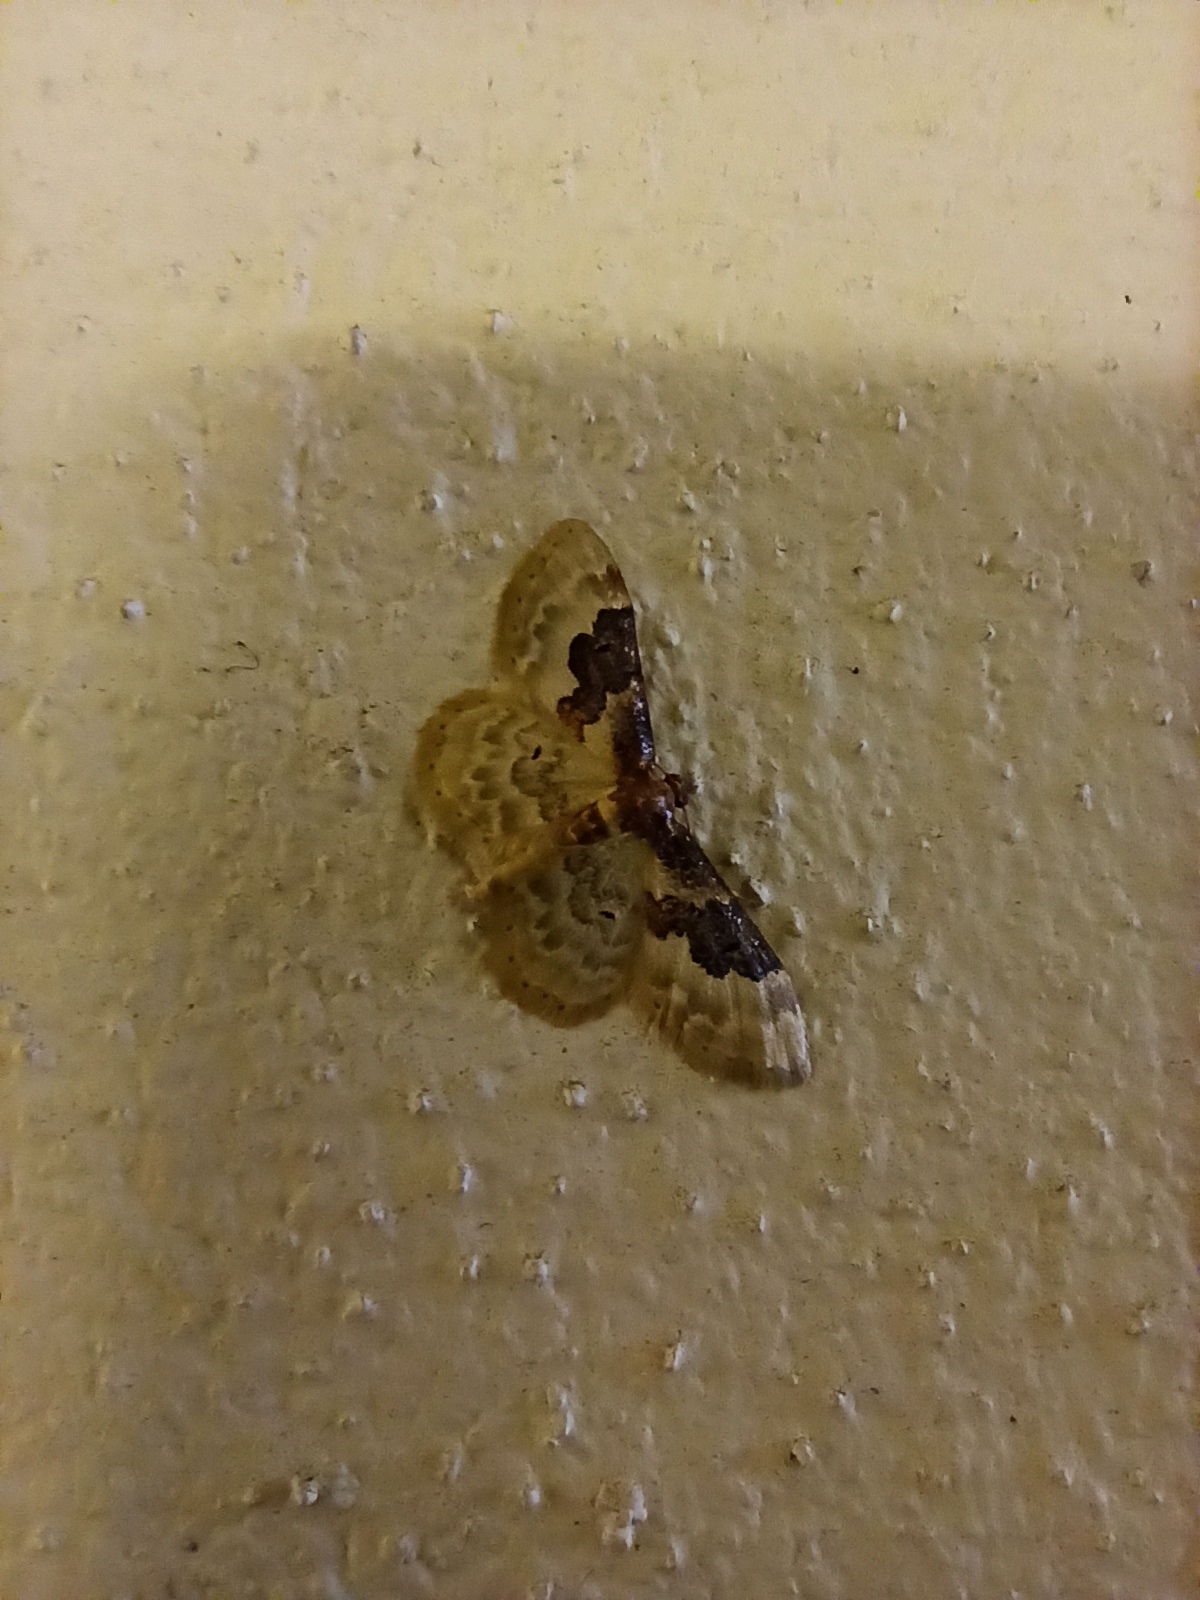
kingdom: Animalia
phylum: Arthropoda
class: Insecta
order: Lepidoptera
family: Geometridae
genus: Idaea
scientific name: Idaea rusticata
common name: Least carpet
